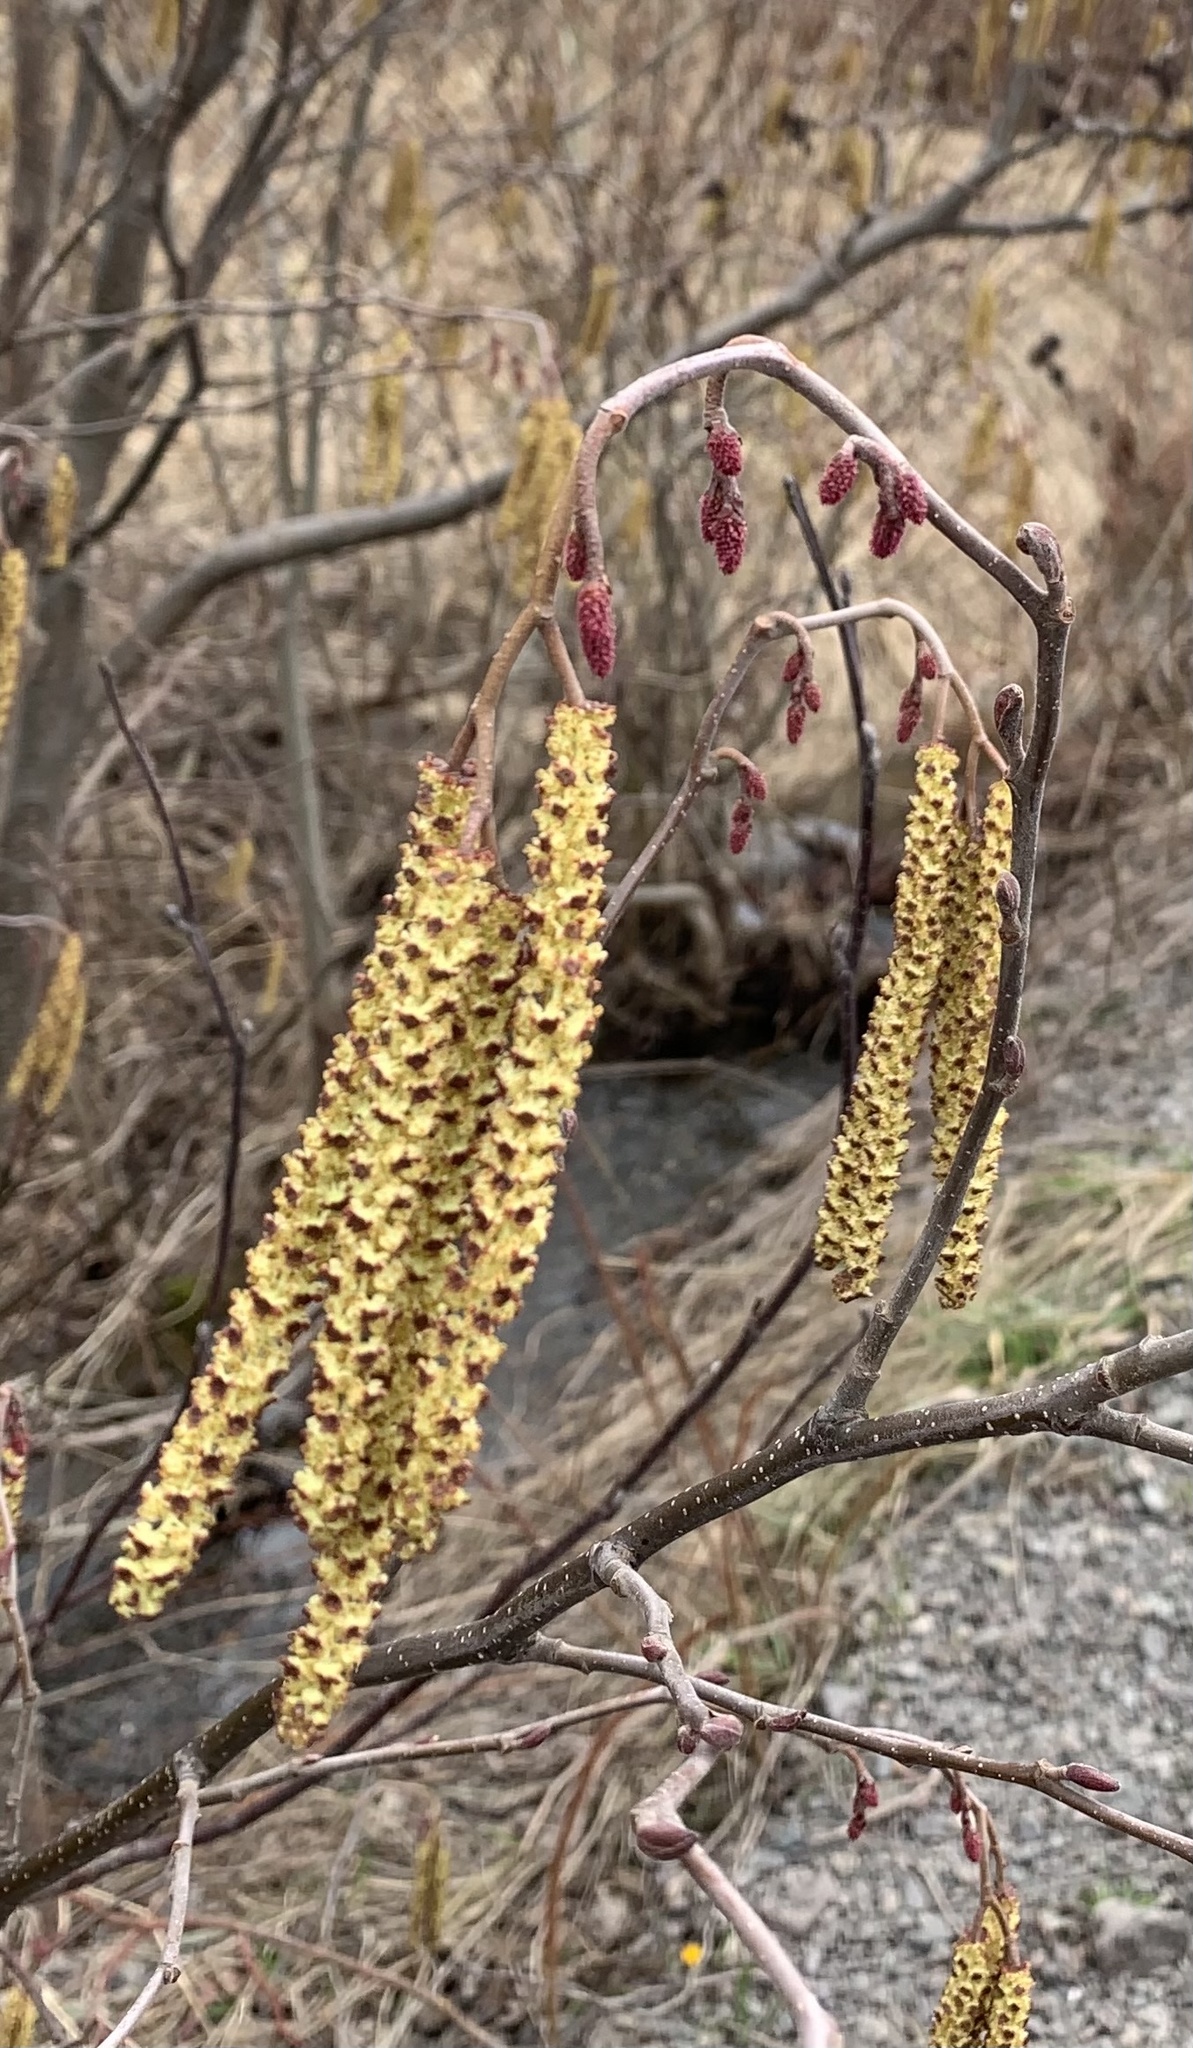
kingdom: Plantae
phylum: Tracheophyta
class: Magnoliopsida
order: Fagales
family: Betulaceae
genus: Alnus
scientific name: Alnus incana
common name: Grey alder
